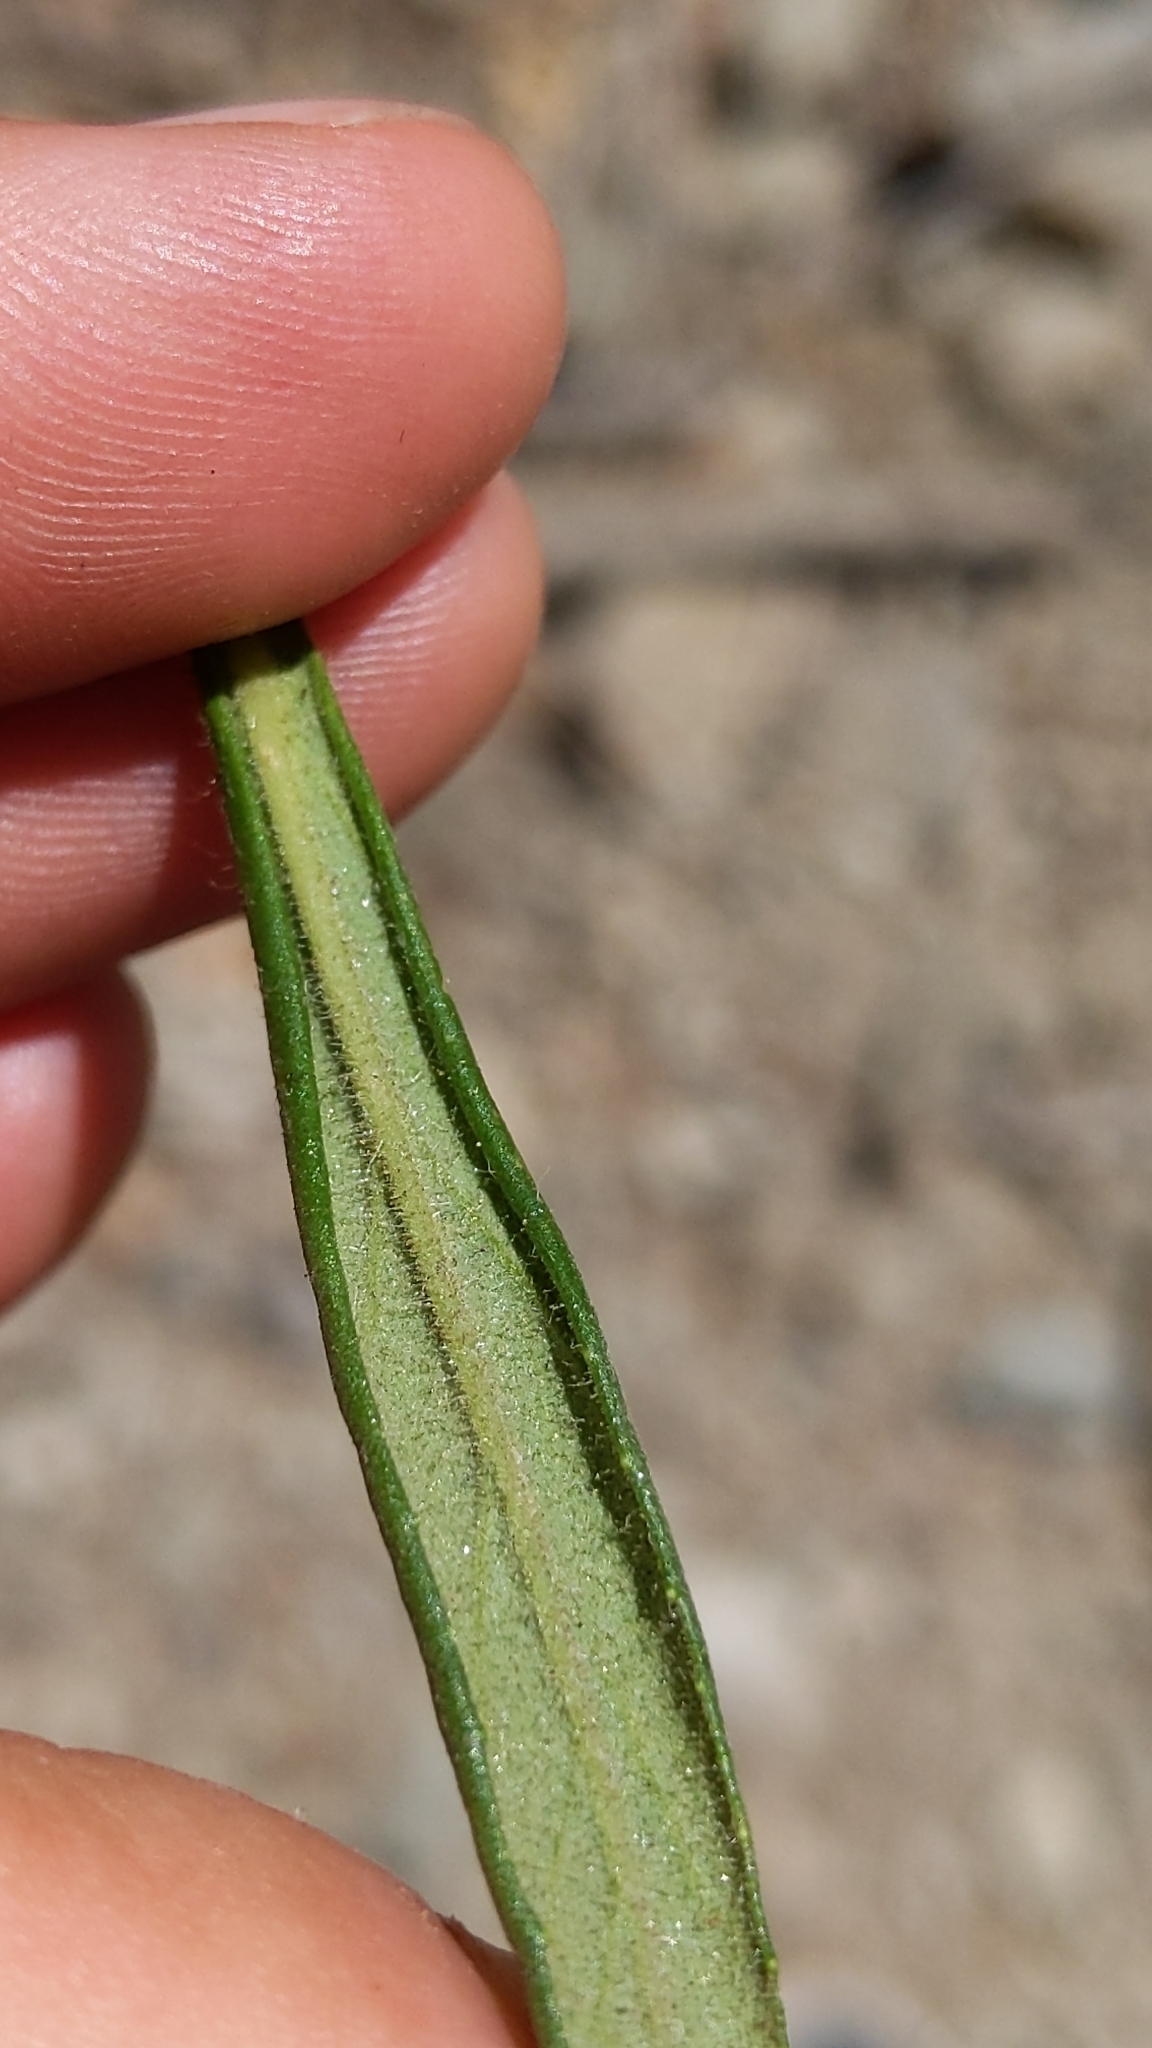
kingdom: Plantae
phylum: Tracheophyta
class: Magnoliopsida
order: Lamiales
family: Phrymaceae
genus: Diplacus
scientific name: Diplacus longiflorus
